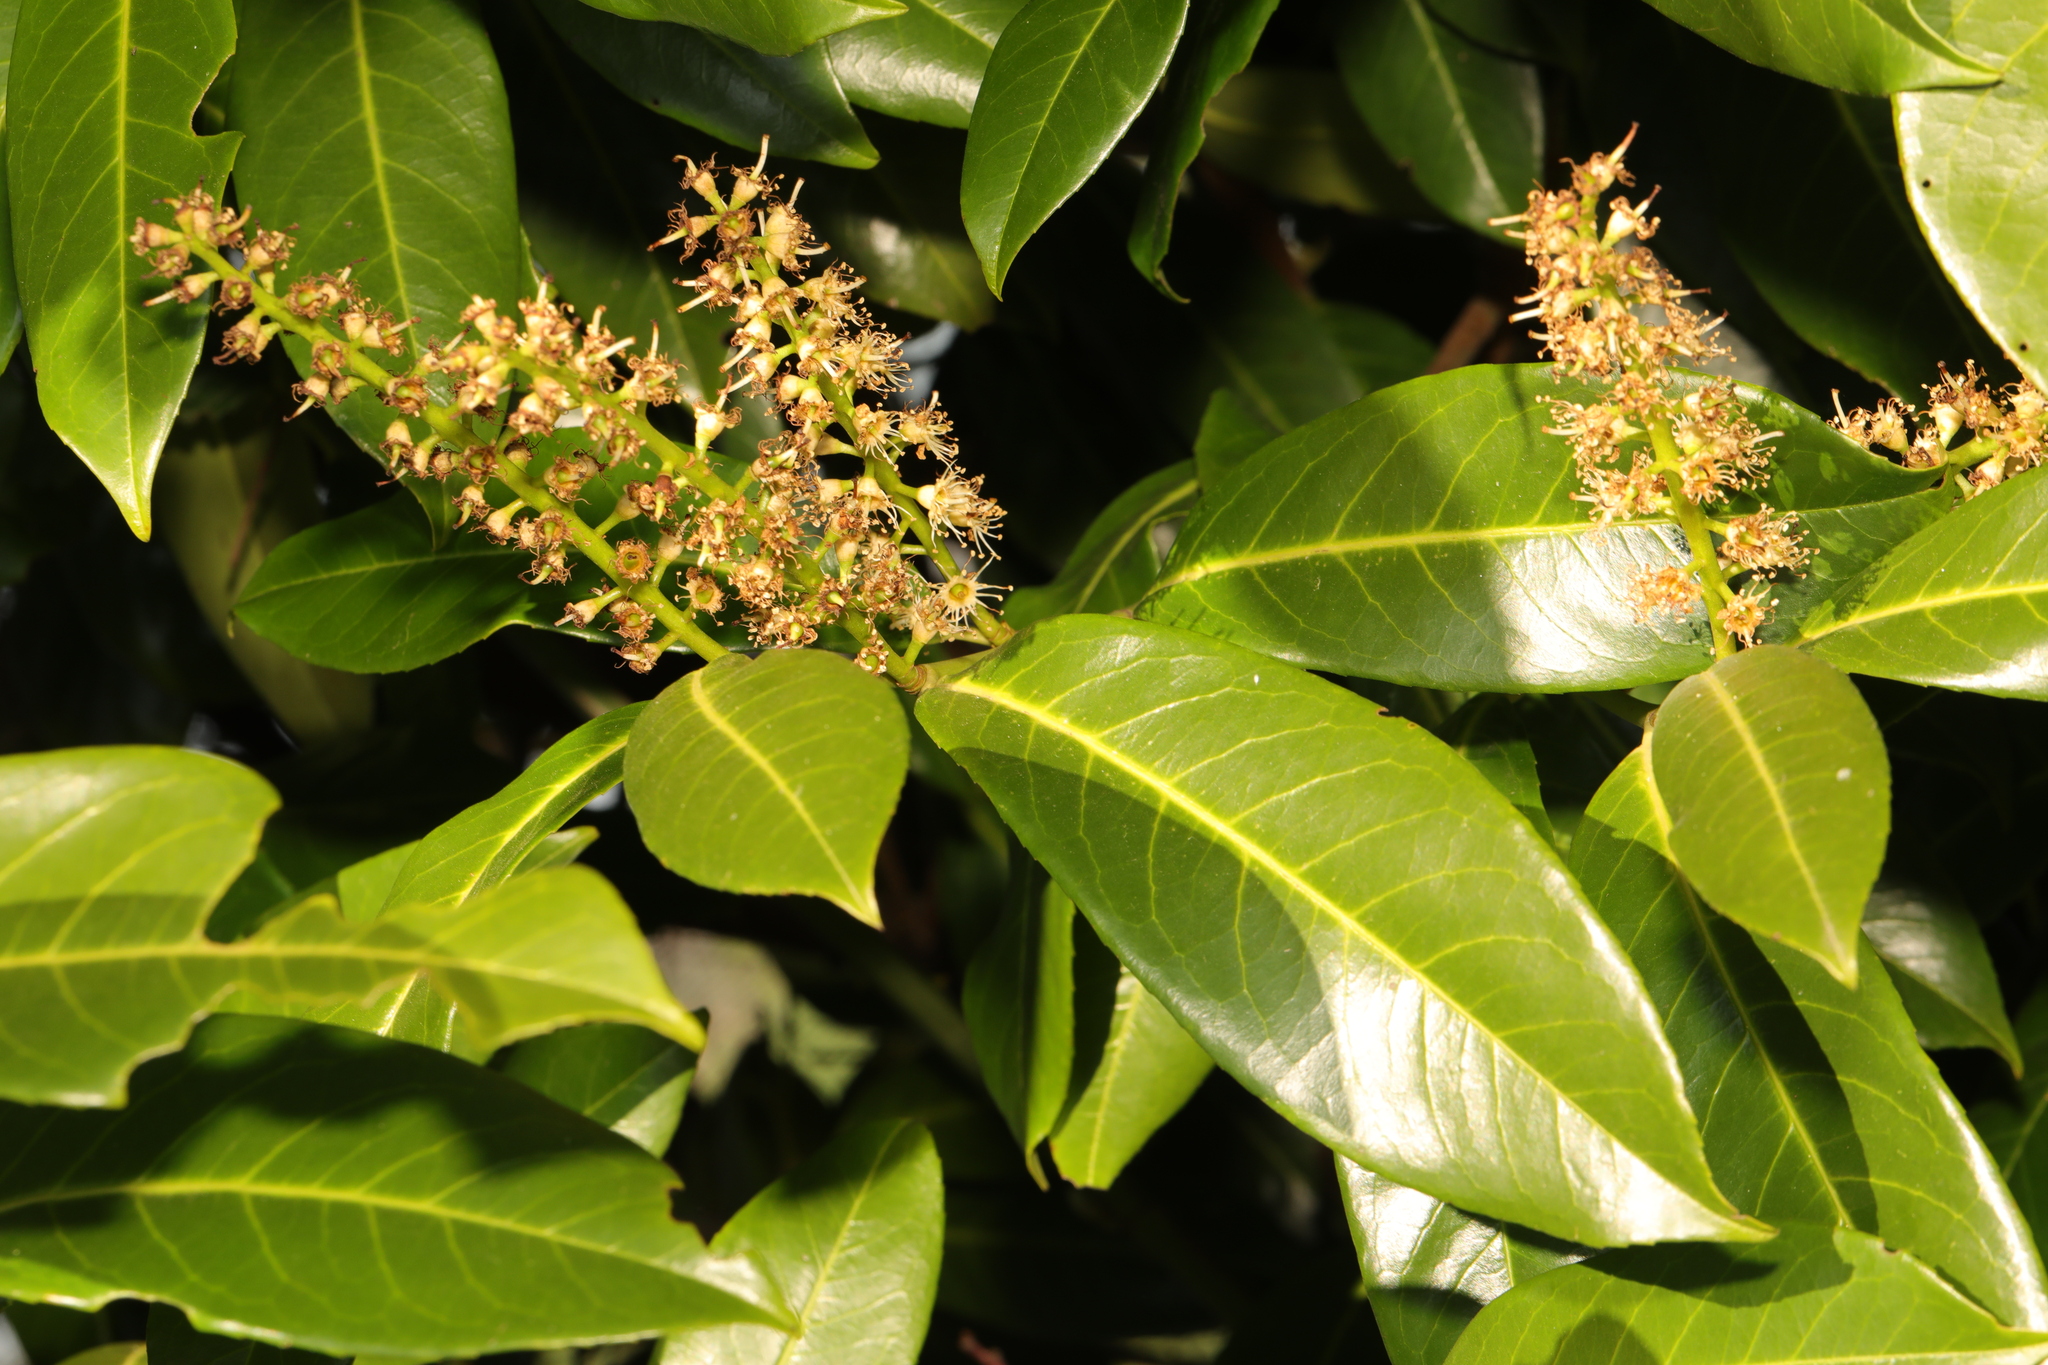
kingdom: Plantae
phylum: Tracheophyta
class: Magnoliopsida
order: Rosales
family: Rosaceae
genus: Prunus
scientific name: Prunus laurocerasus
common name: Cherry laurel
